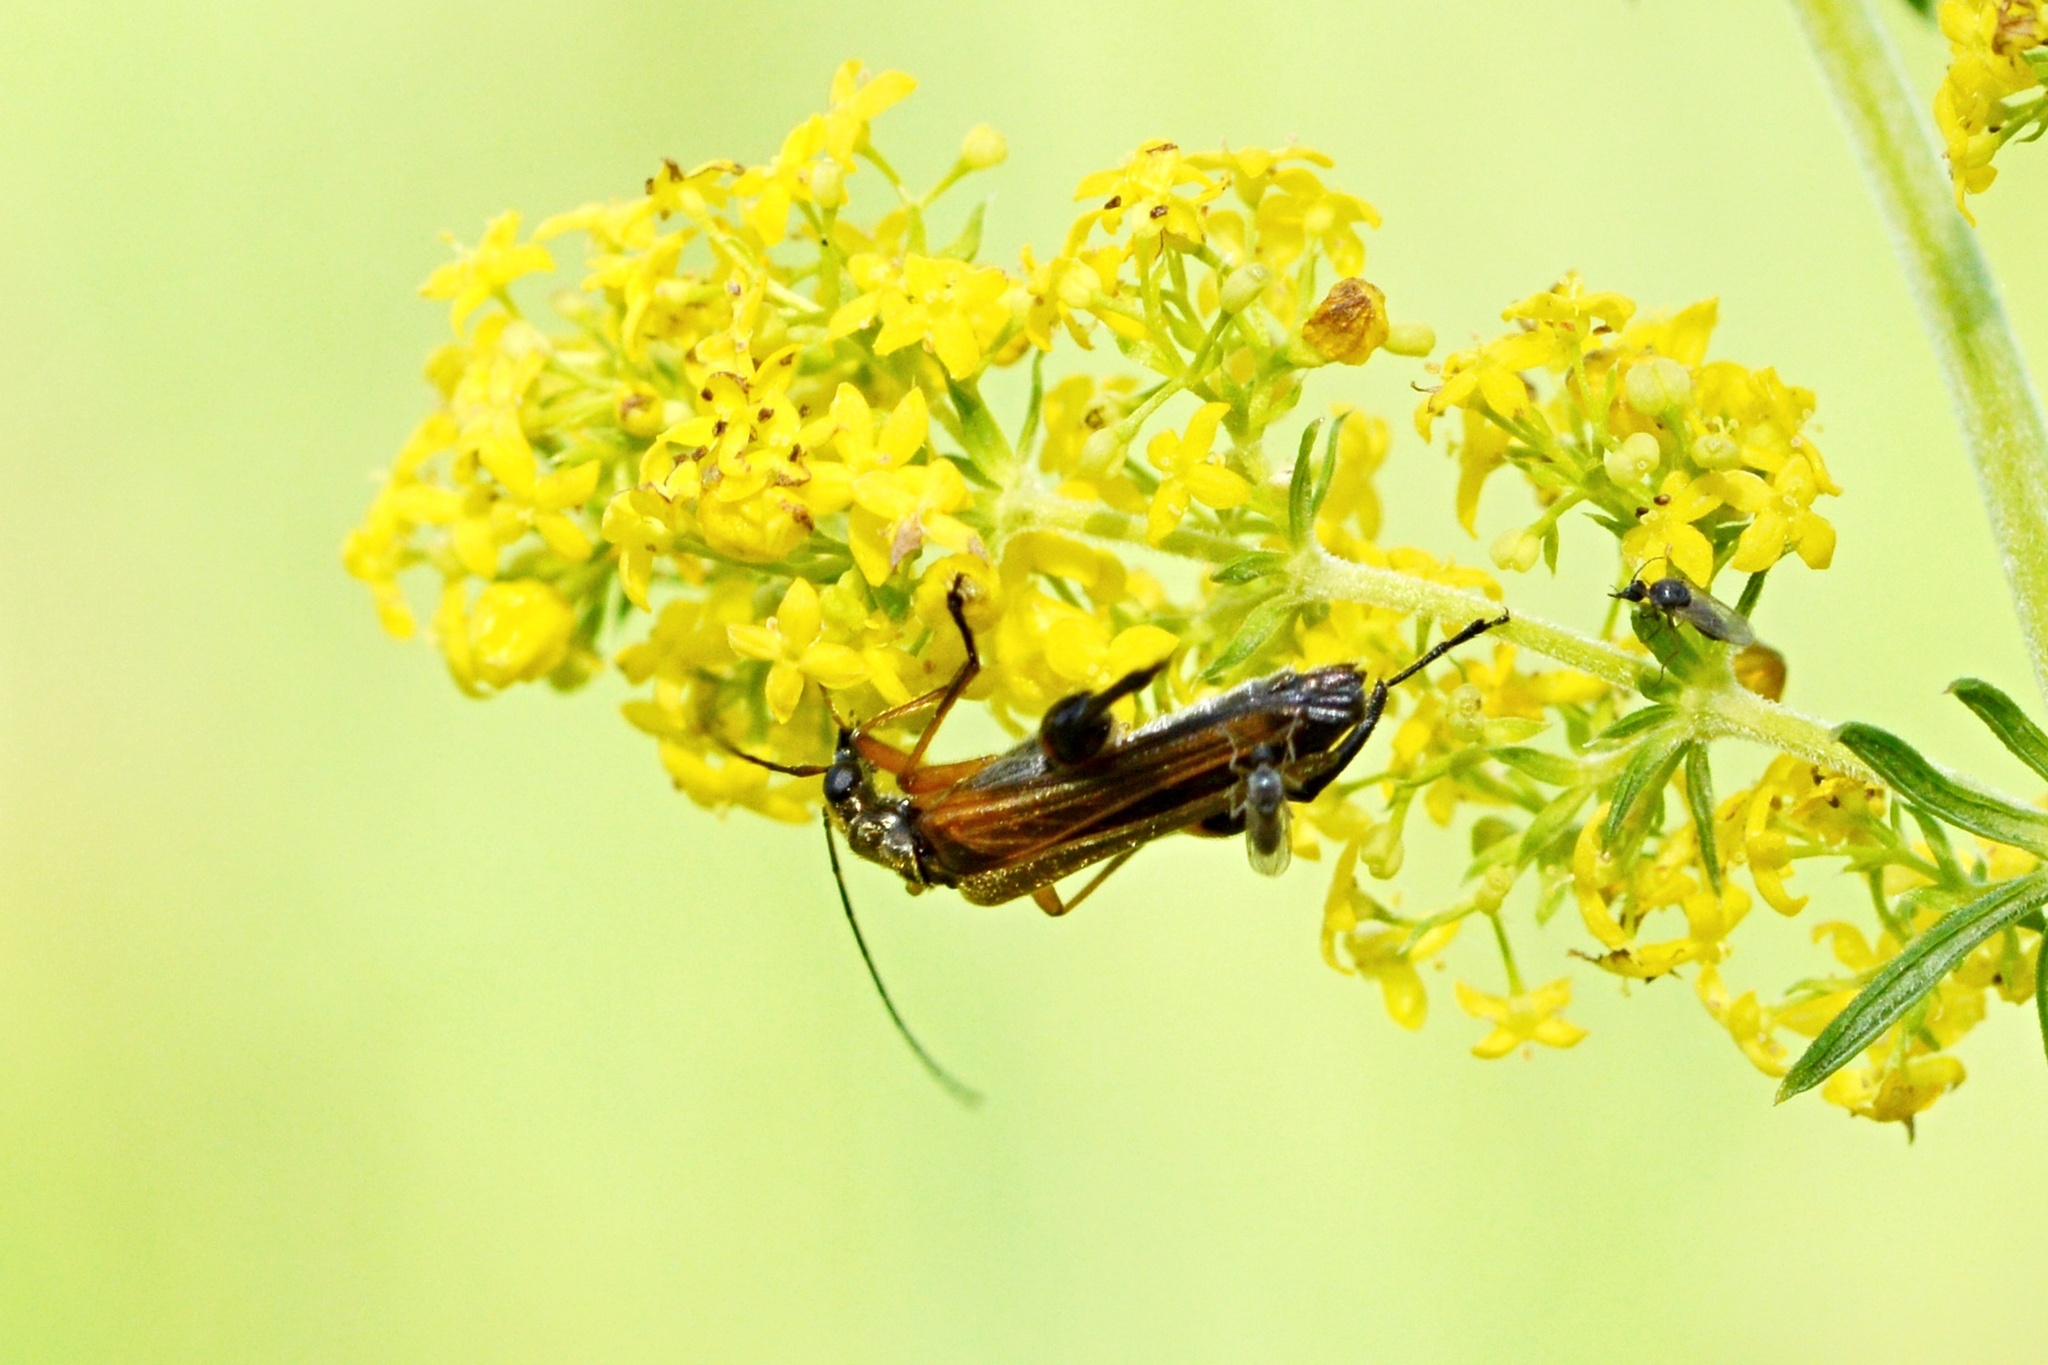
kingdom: Animalia
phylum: Arthropoda
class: Insecta
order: Coleoptera
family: Oedemeridae
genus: Oedemera
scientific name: Oedemera podagrariae
